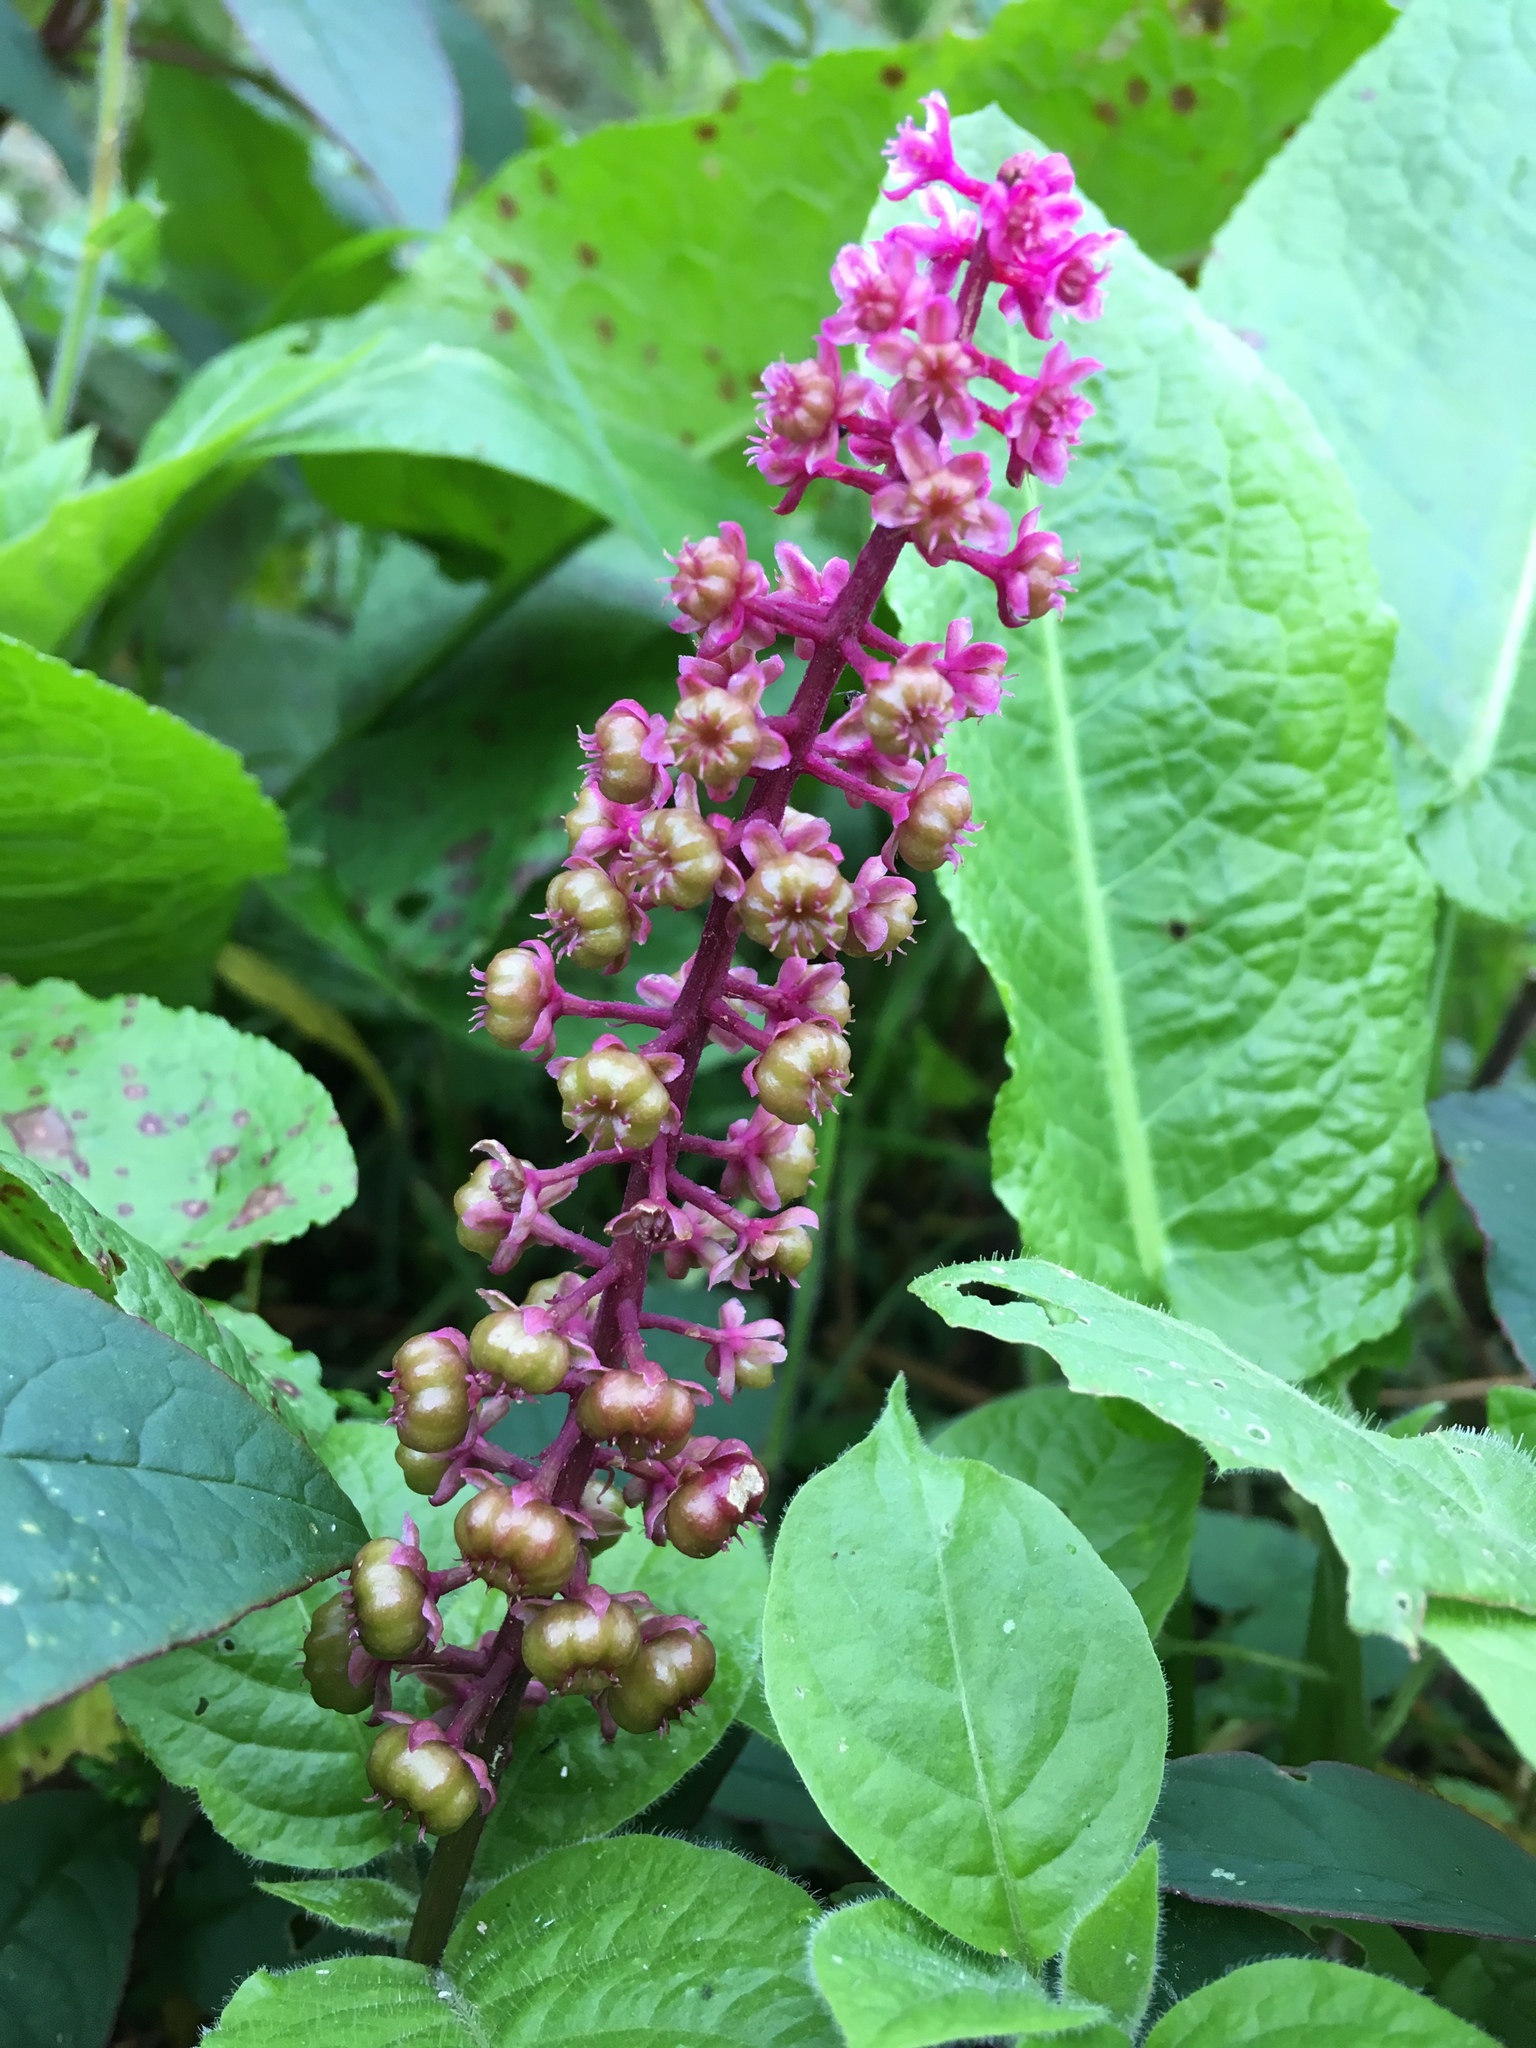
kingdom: Plantae
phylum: Tracheophyta
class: Magnoliopsida
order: Caryophyllales
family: Phytolaccaceae
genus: Phytolacca
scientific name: Phytolacca rugosa
